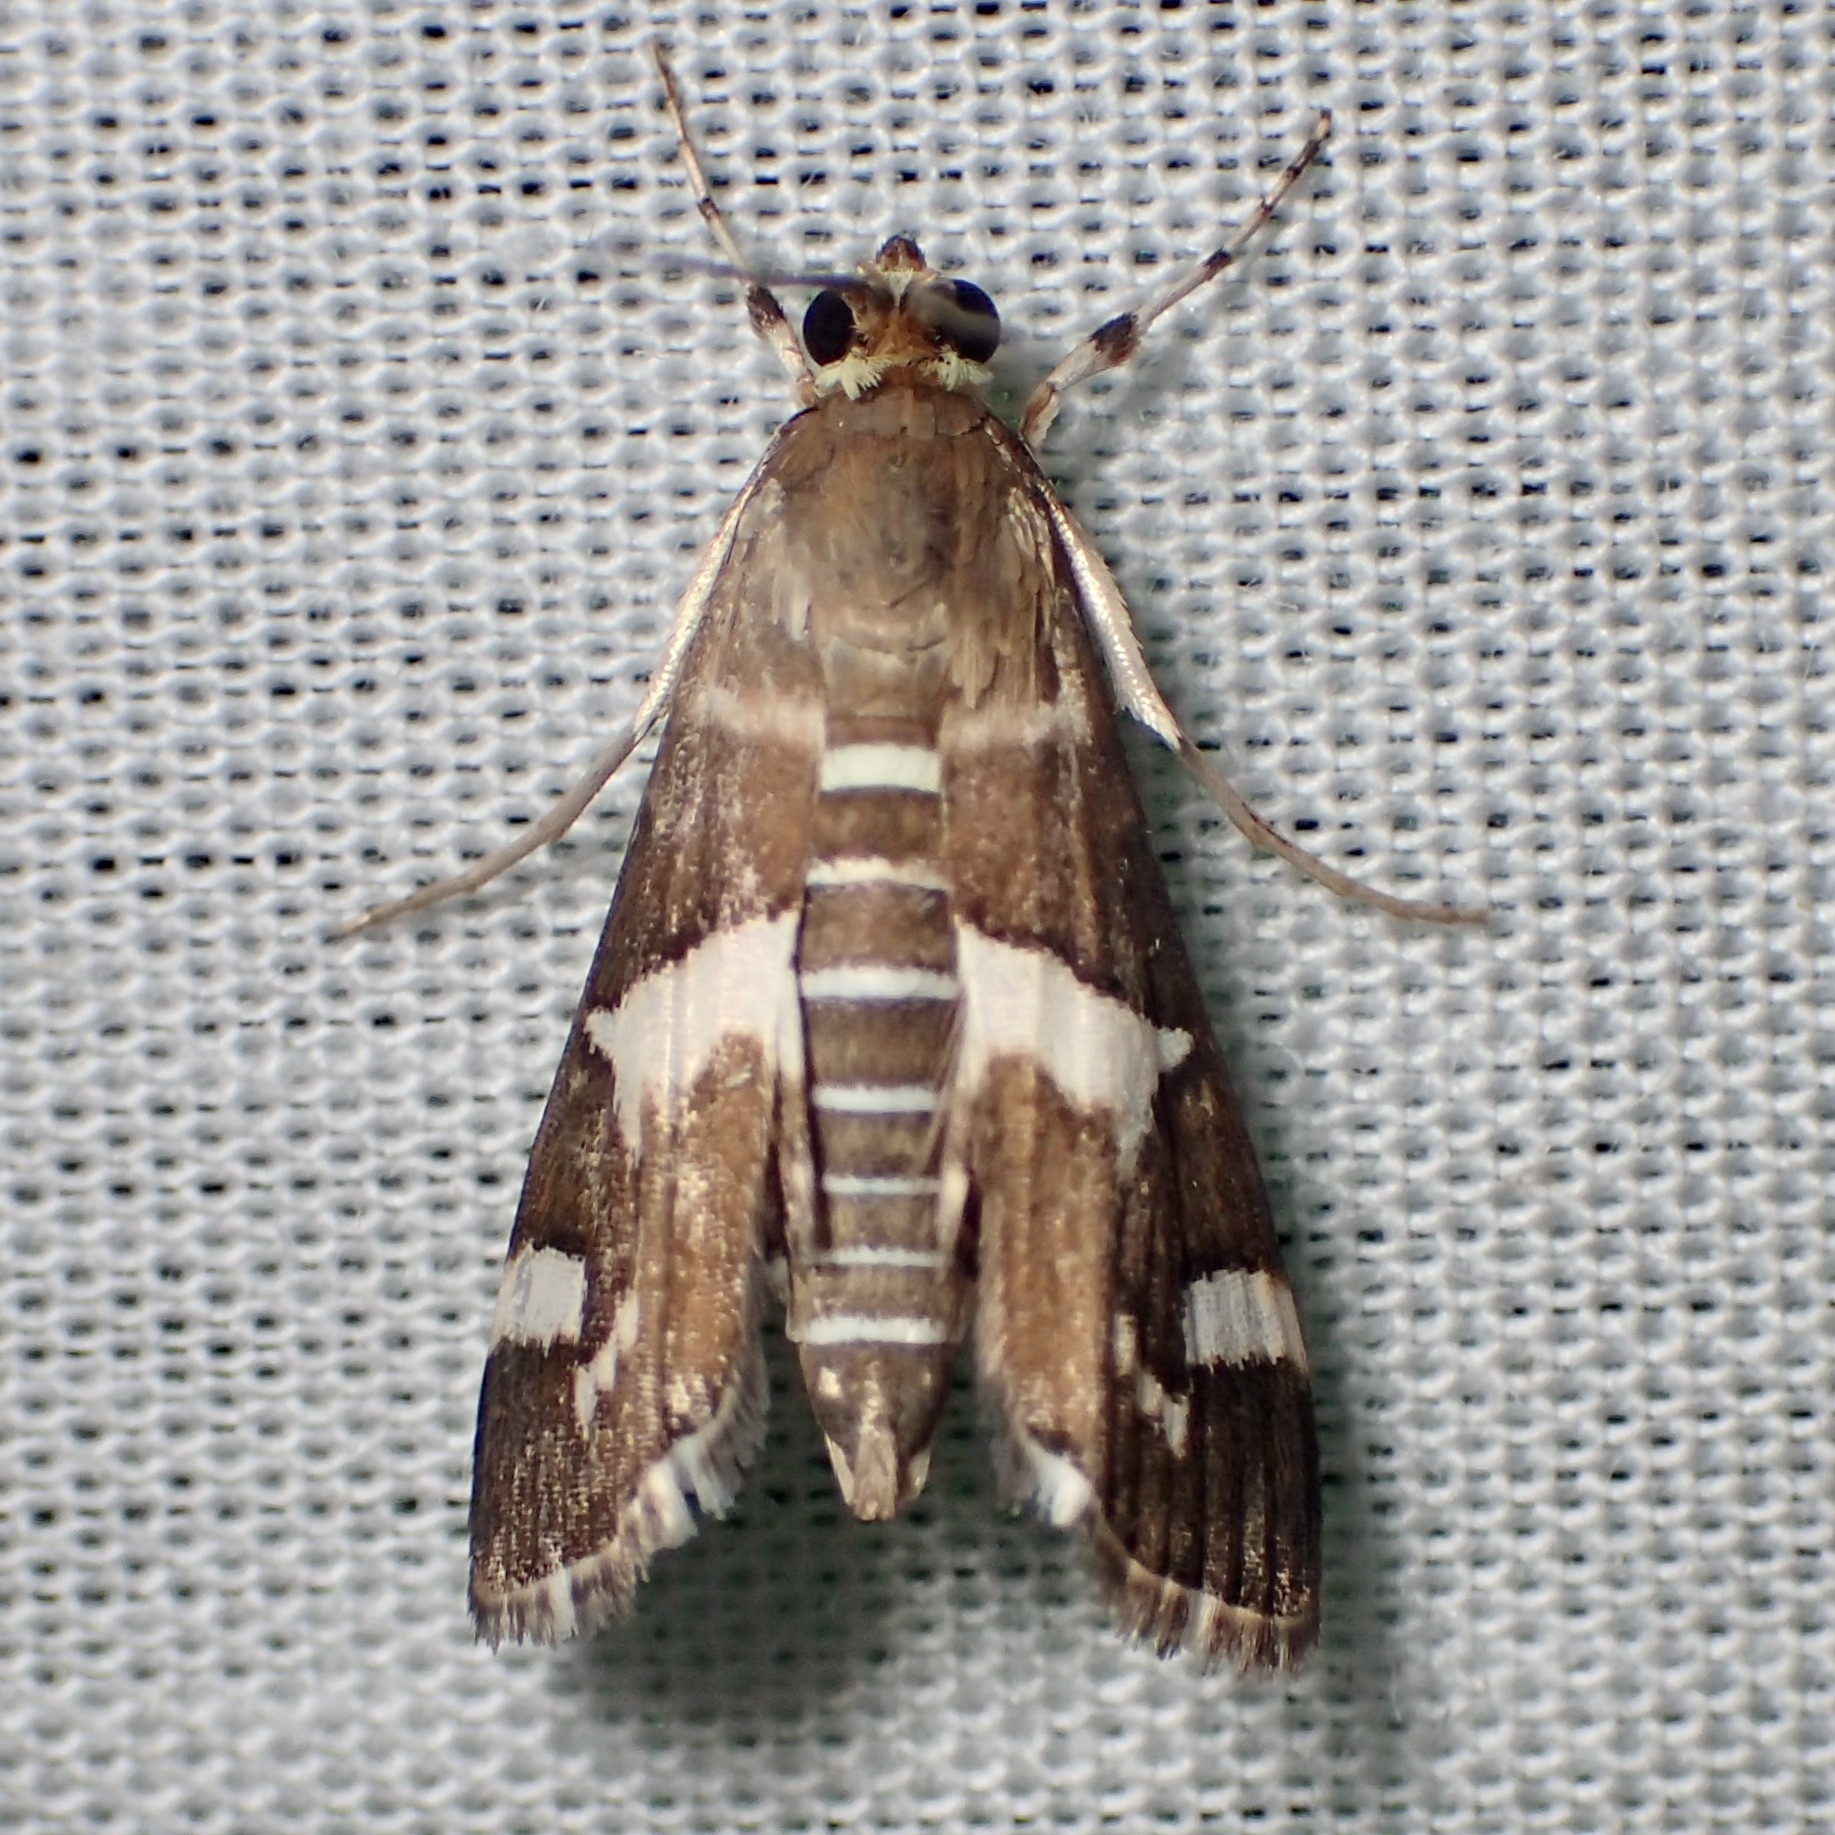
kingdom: Animalia
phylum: Arthropoda
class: Insecta
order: Lepidoptera
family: Crambidae
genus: Spoladea
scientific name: Spoladea recurvalis
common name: Beet webworm moth
